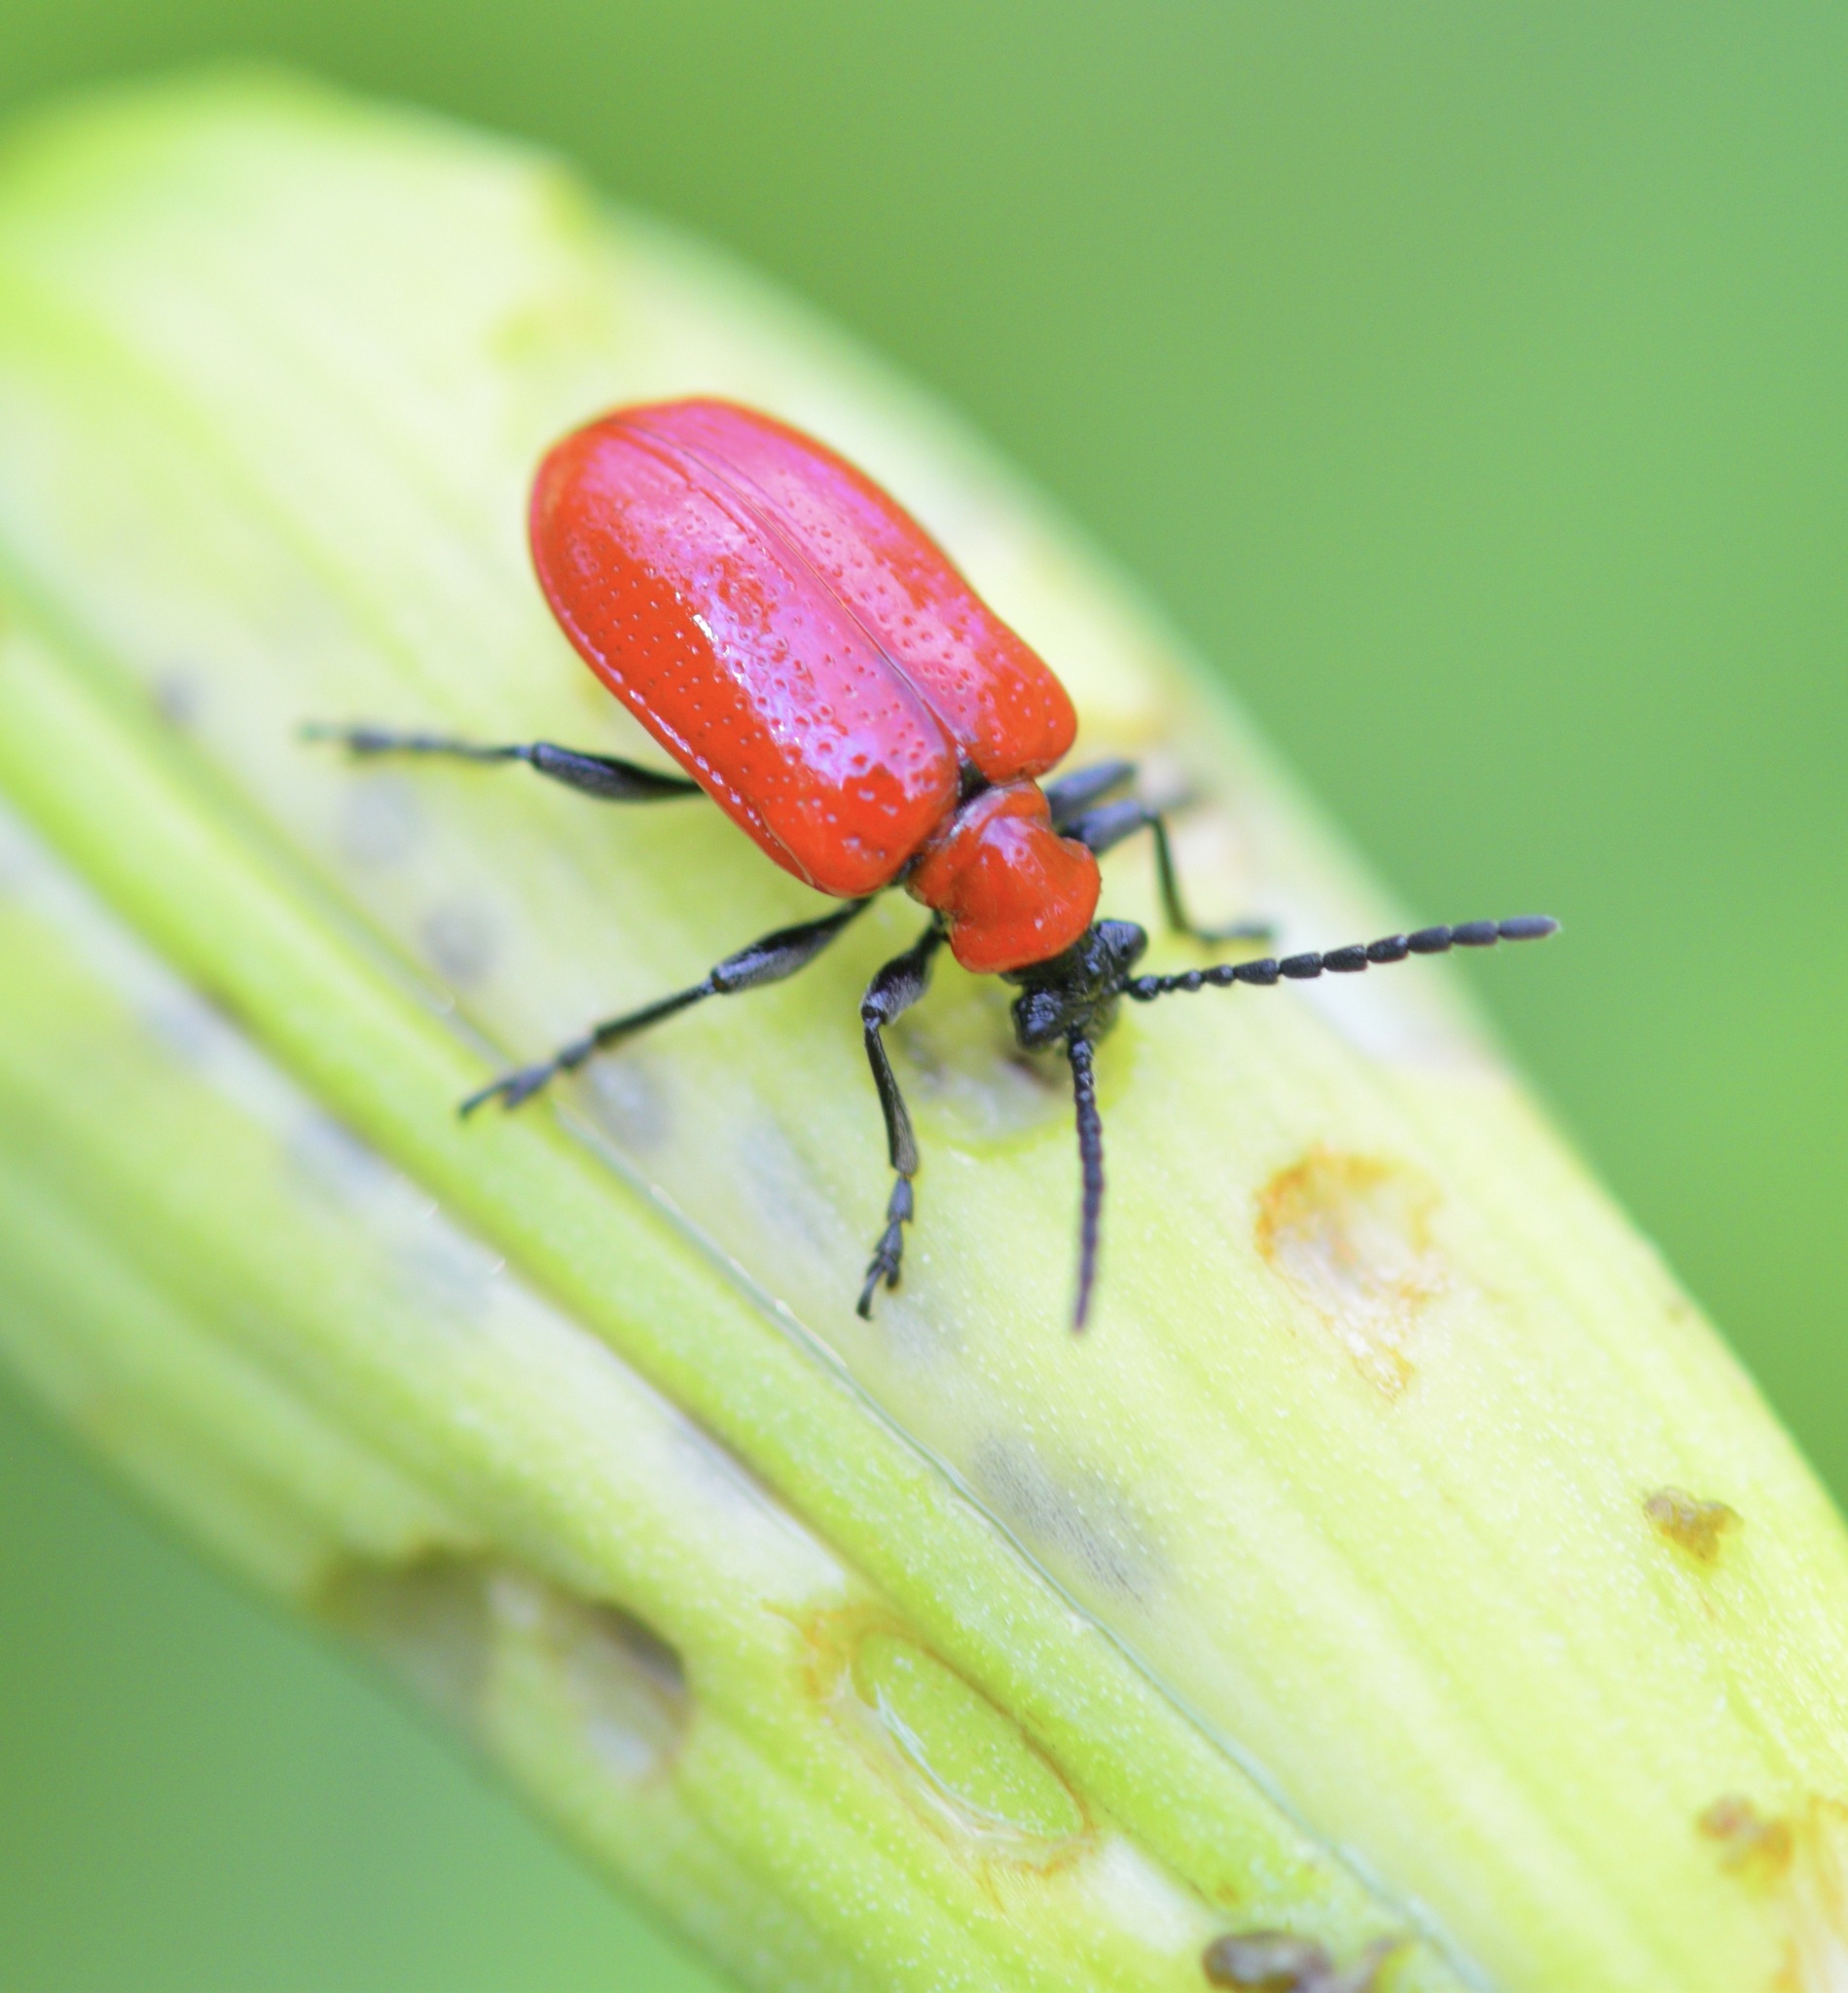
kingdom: Animalia
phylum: Arthropoda
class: Insecta
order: Coleoptera
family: Chrysomelidae
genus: Lilioceris
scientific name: Lilioceris lilii
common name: Lily beetle
